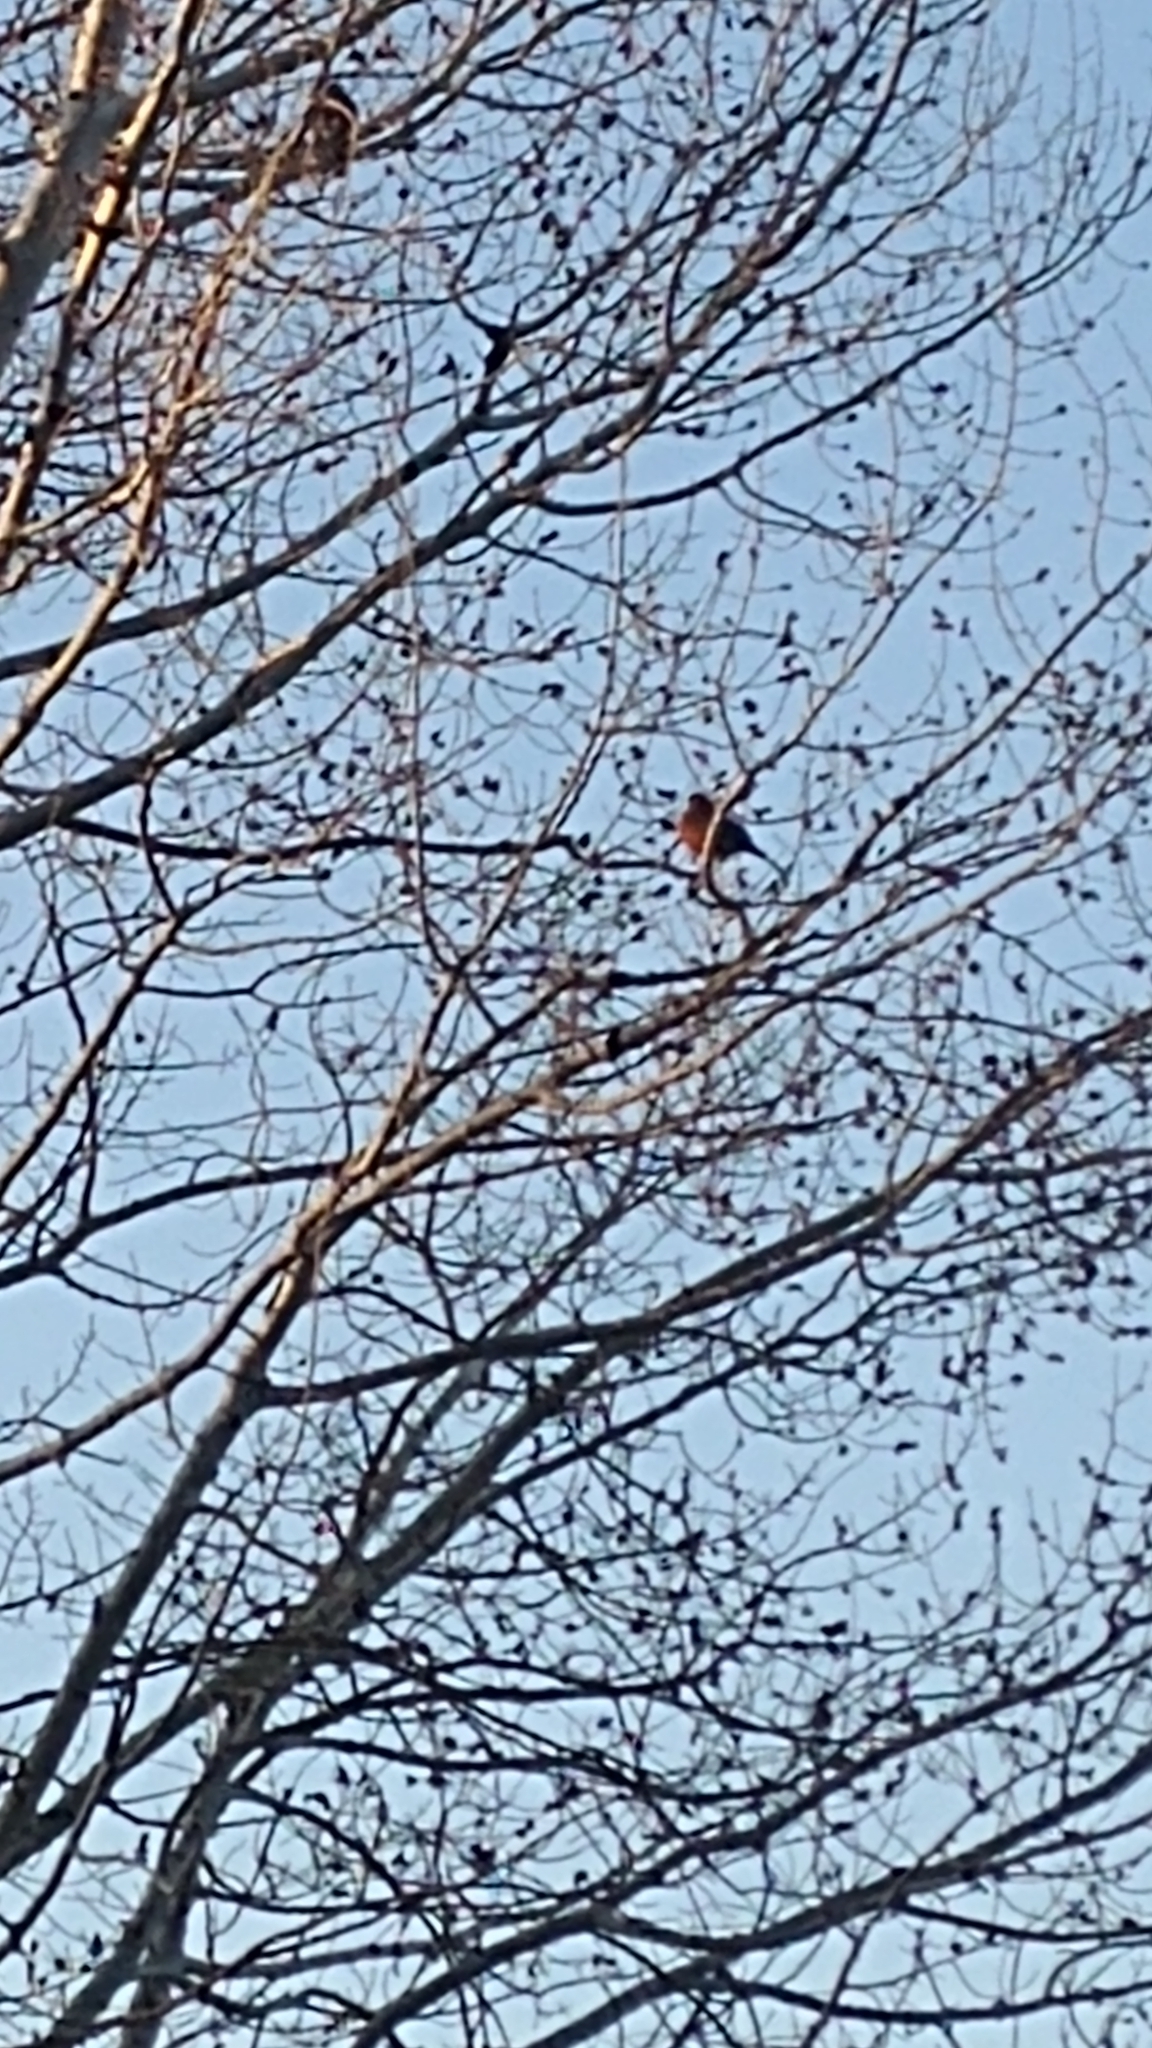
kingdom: Animalia
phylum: Chordata
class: Aves
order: Passeriformes
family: Turdidae
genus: Turdus
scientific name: Turdus migratorius
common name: American robin
